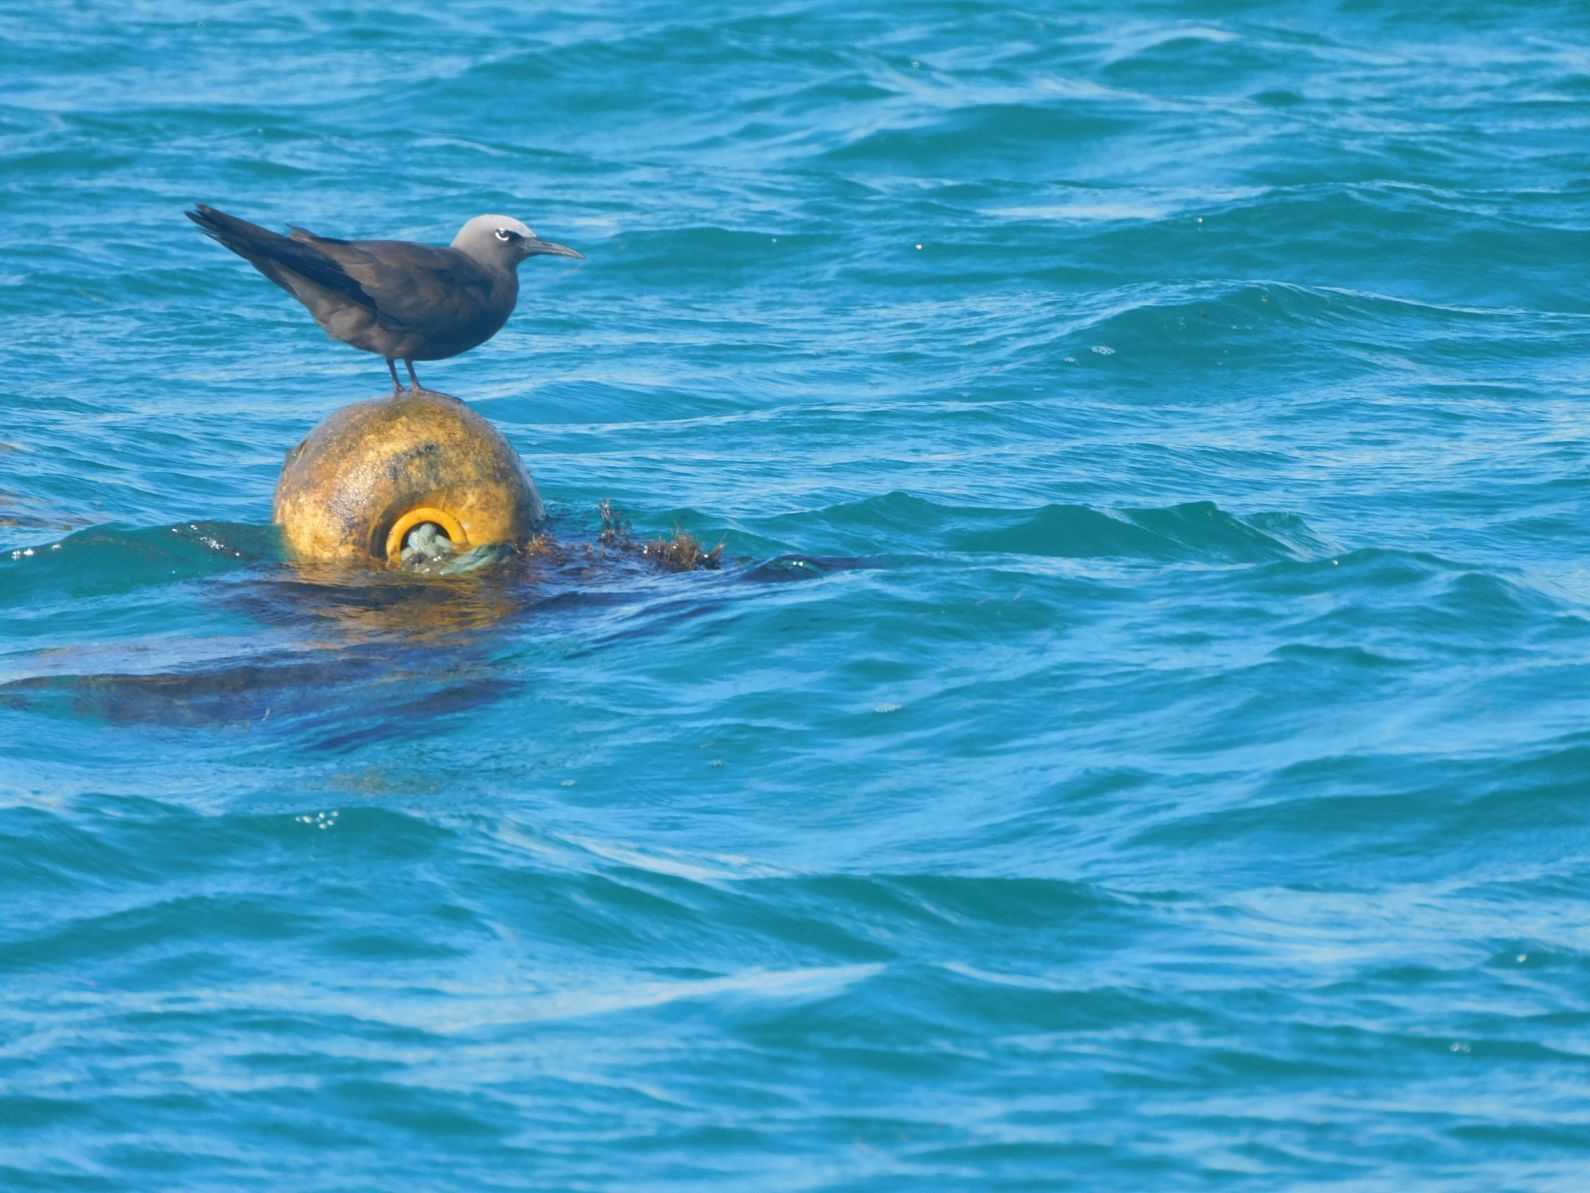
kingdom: Animalia
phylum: Chordata
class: Aves
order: Charadriiformes
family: Laridae
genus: Anous
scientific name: Anous stolidus
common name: Brown noddy
